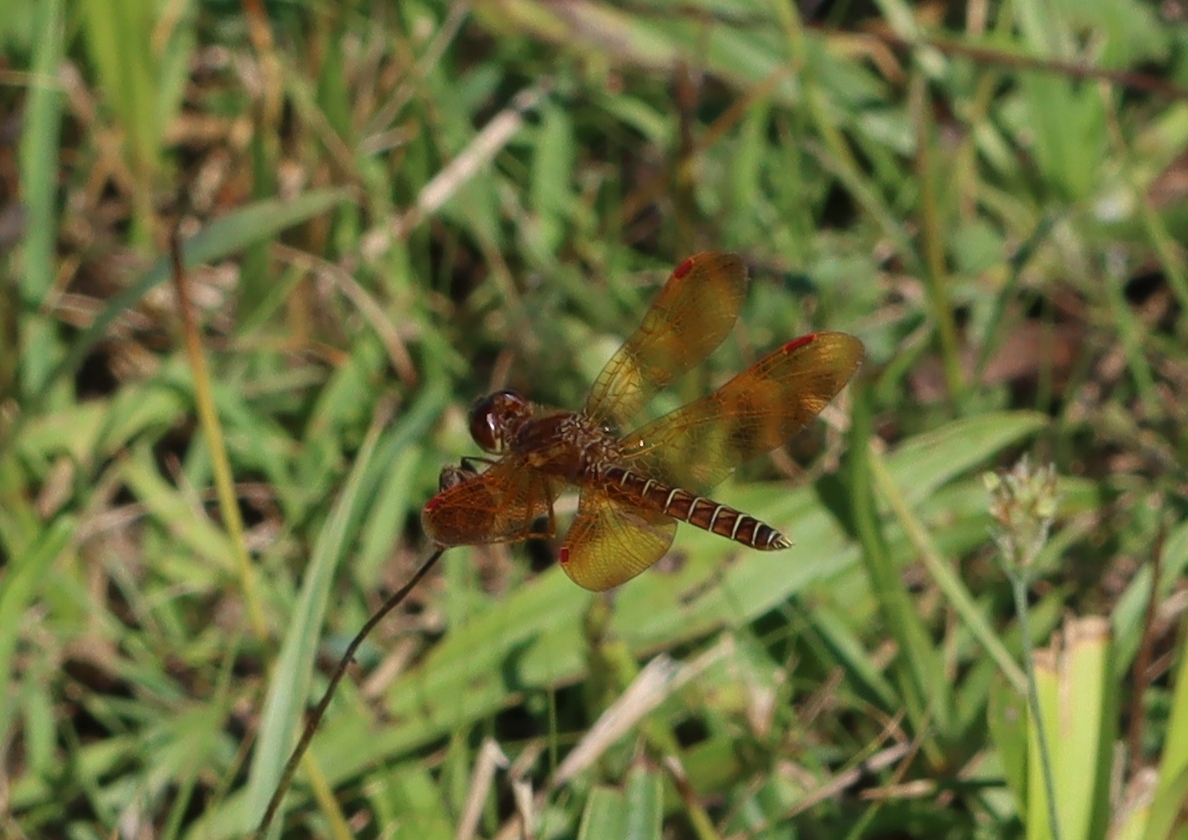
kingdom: Animalia
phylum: Arthropoda
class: Insecta
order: Odonata
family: Libellulidae
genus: Perithemis
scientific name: Perithemis tenera
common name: Eastern amberwing
